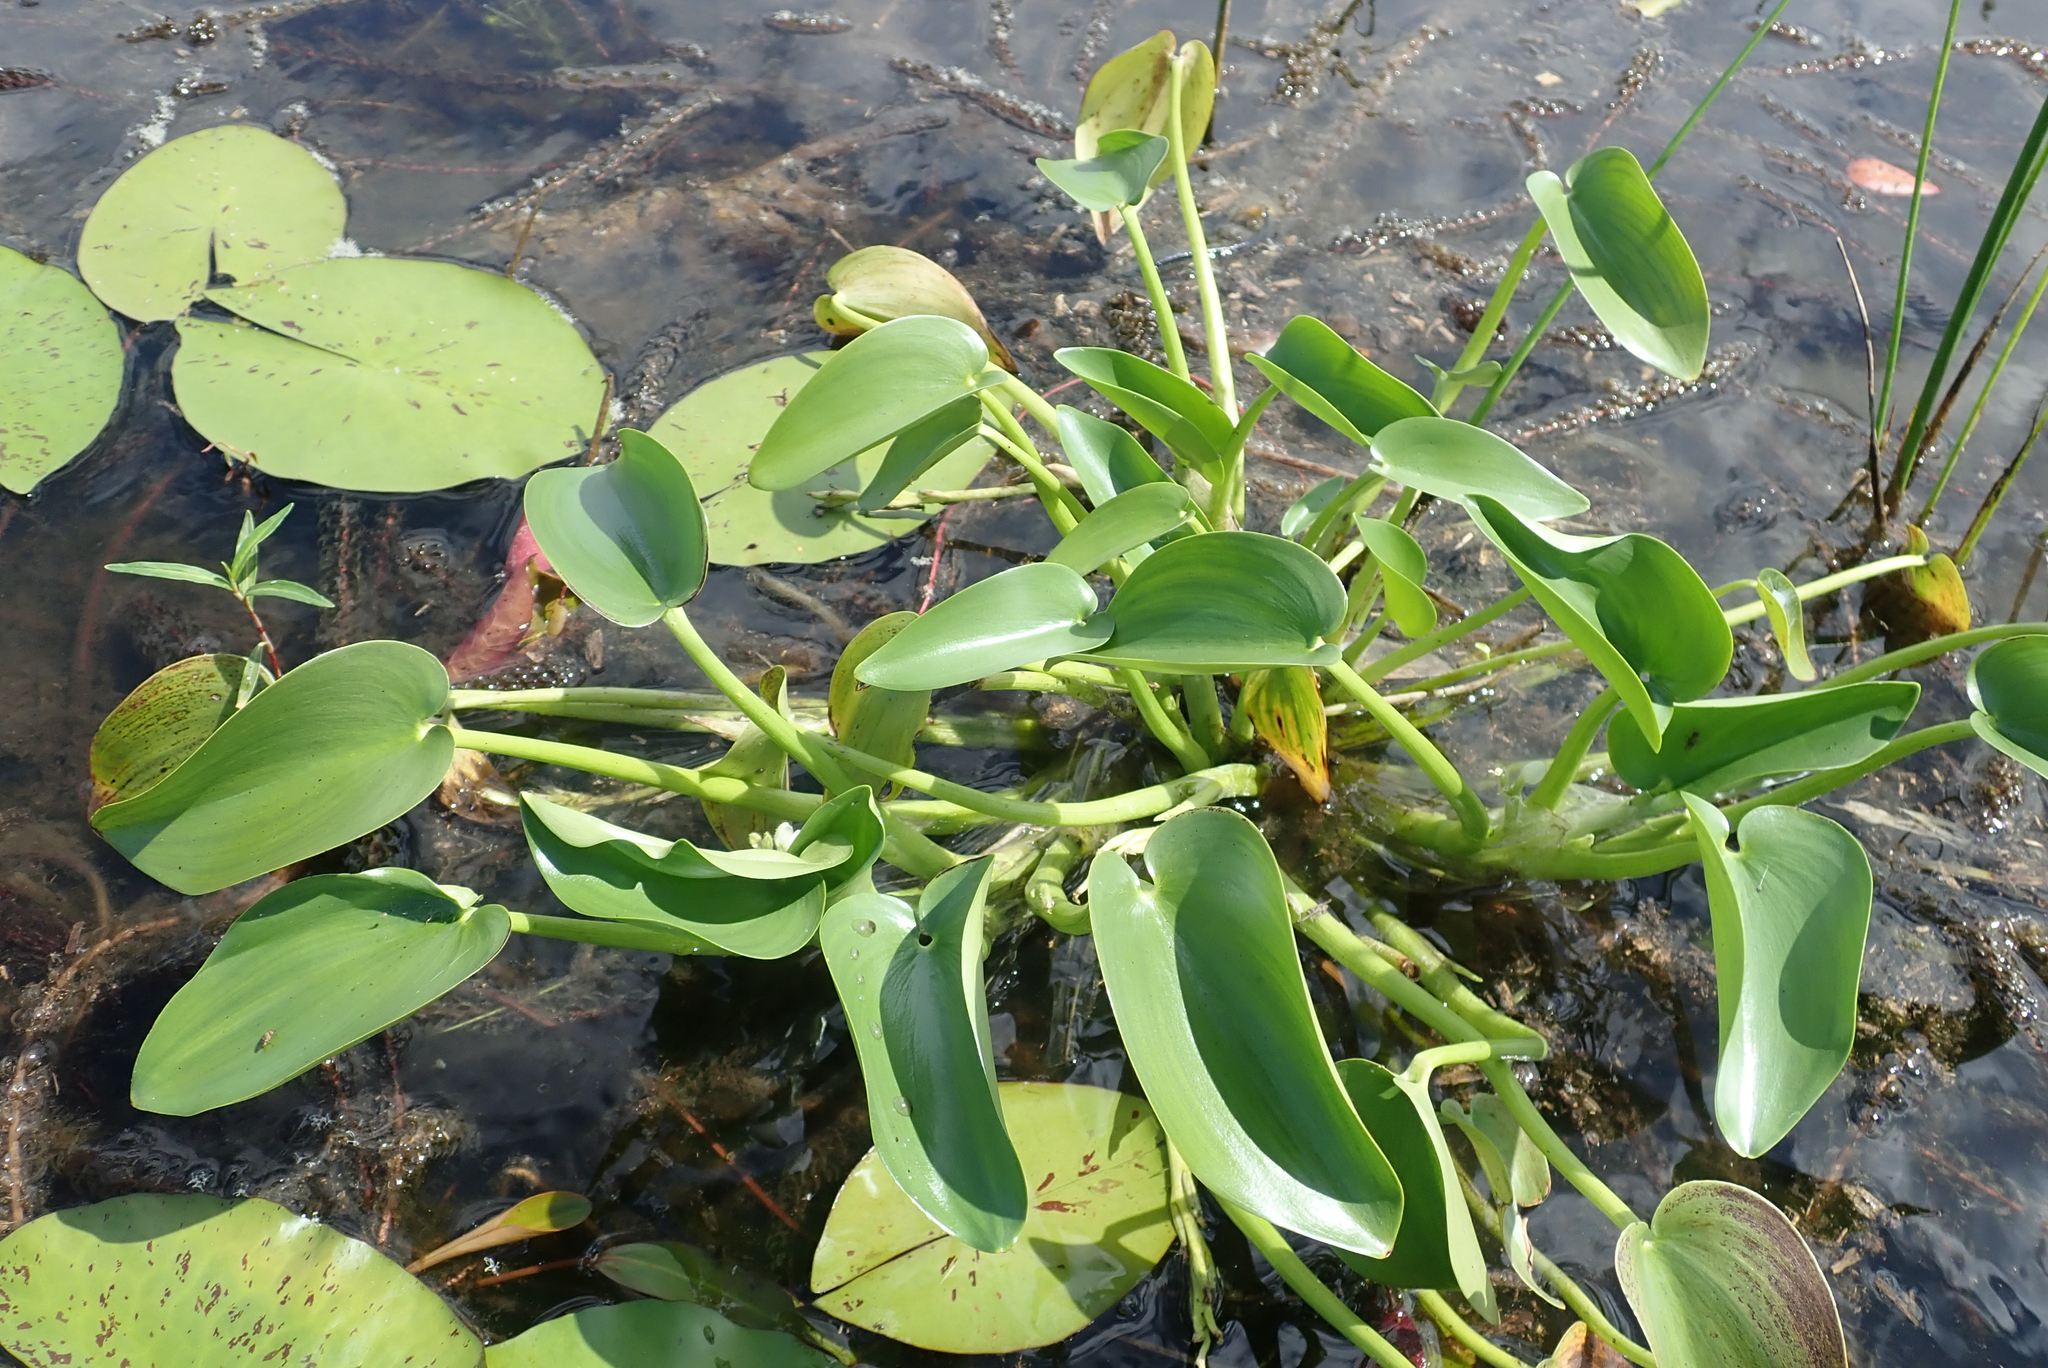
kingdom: Plantae
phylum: Tracheophyta
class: Liliopsida
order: Commelinales
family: Pontederiaceae
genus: Heteranthera
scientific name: Heteranthera callifolia
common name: Mud plantain
